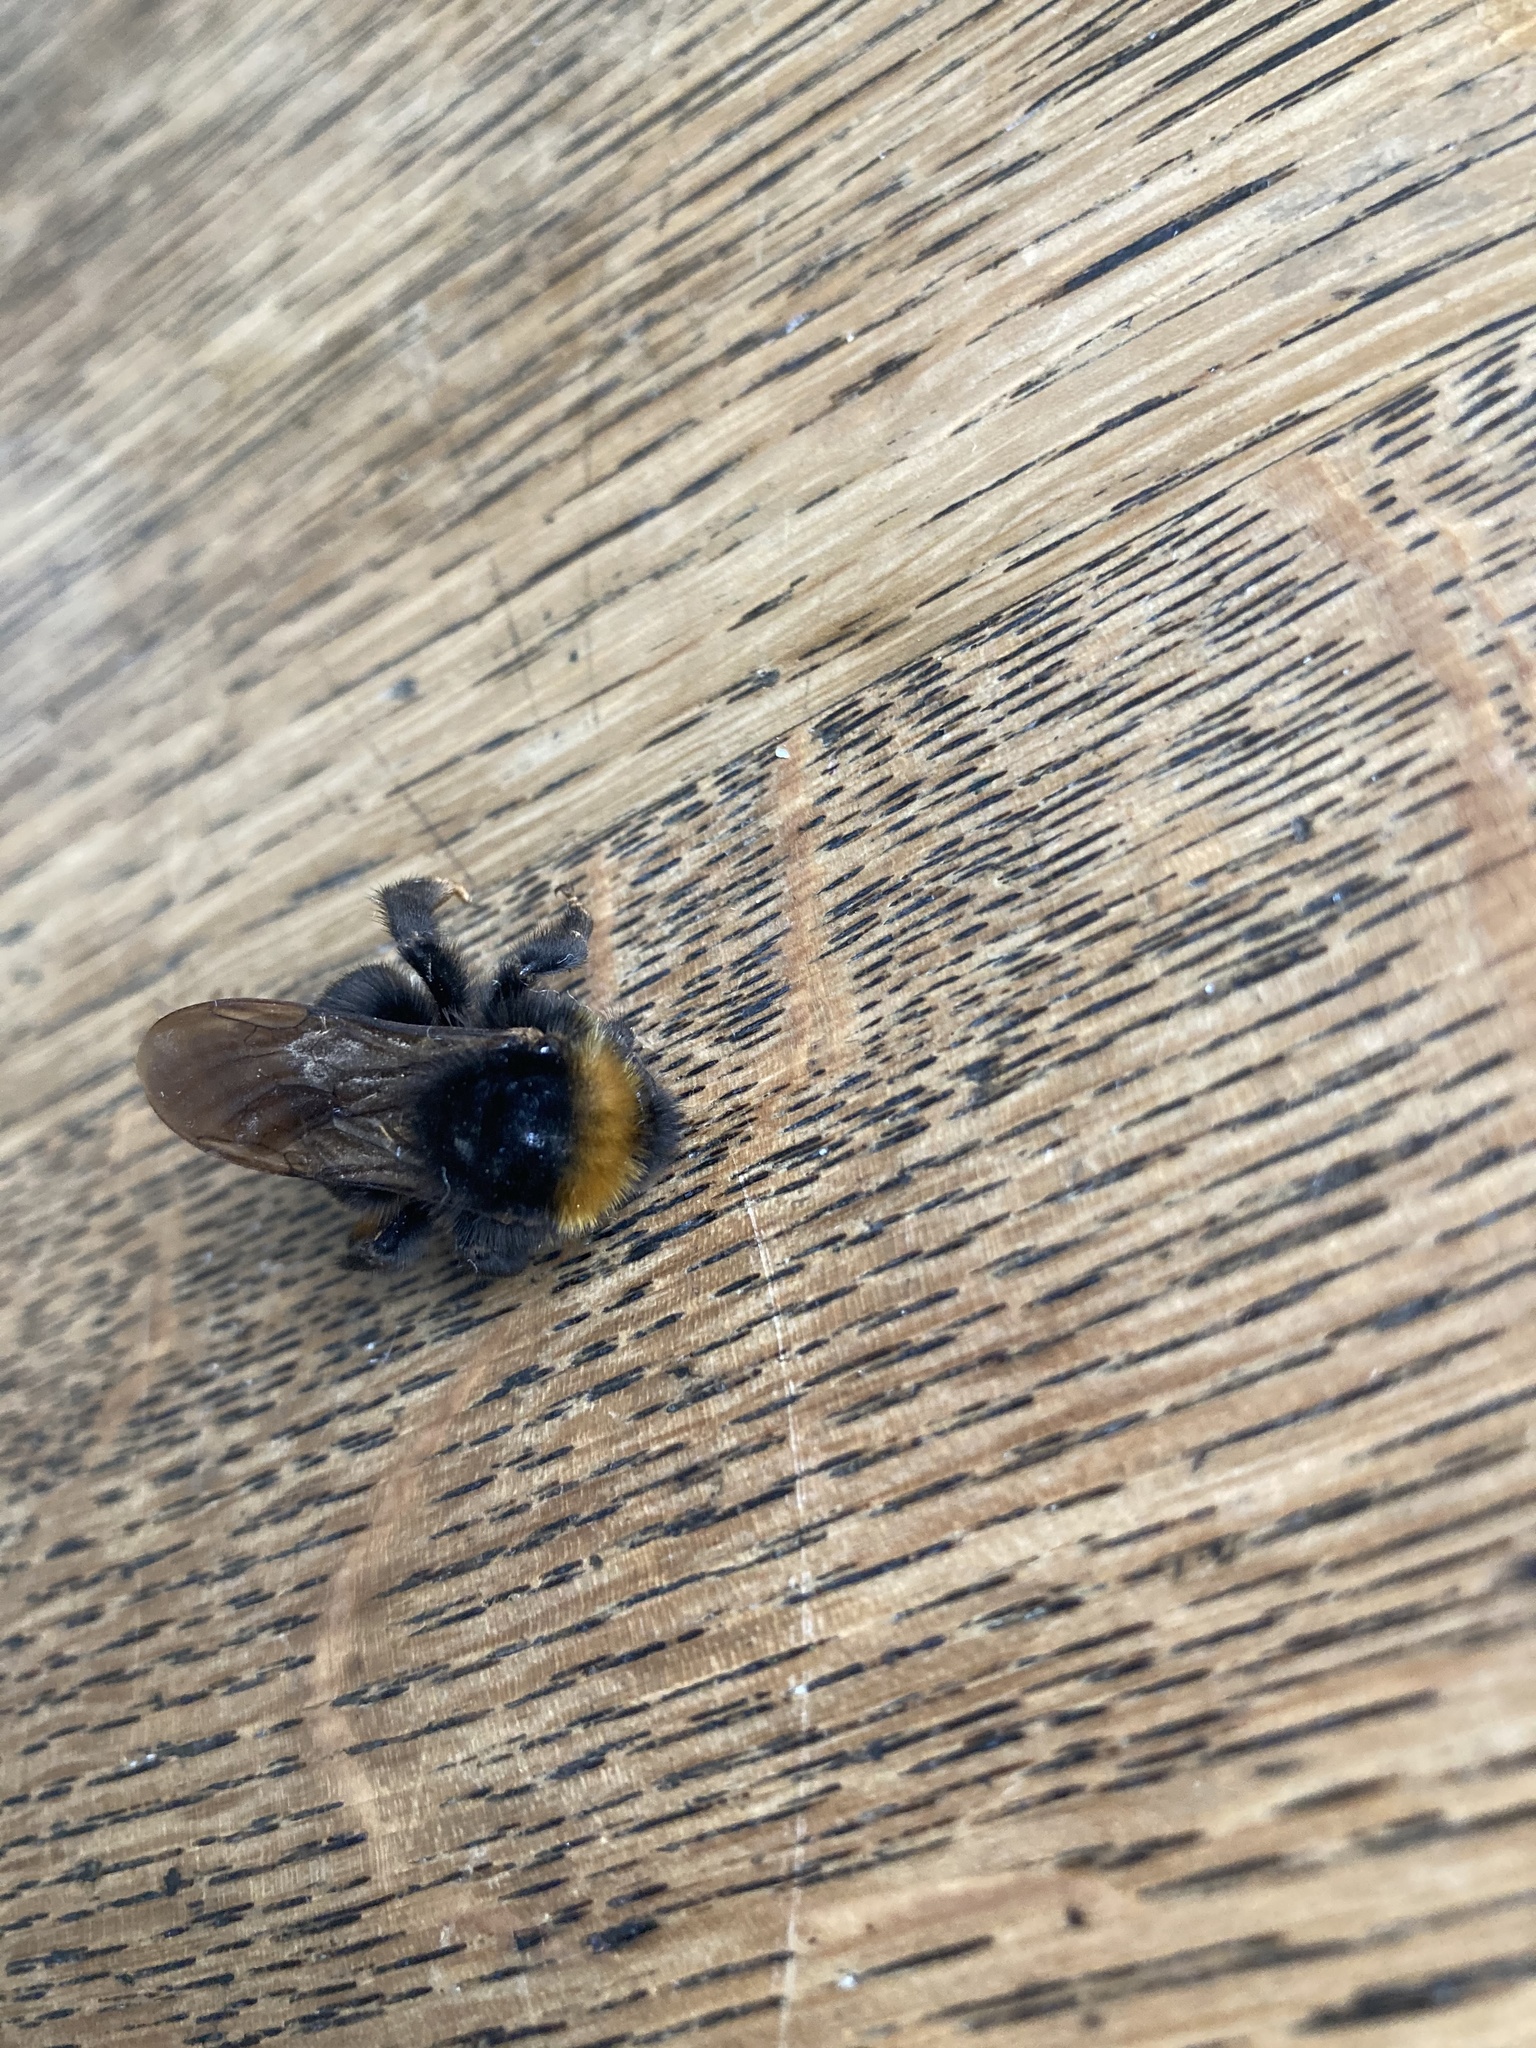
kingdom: Animalia
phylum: Arthropoda
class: Insecta
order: Hymenoptera
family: Apidae
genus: Bombus
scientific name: Bombus vestalis
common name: Vestal cuckoo bee
